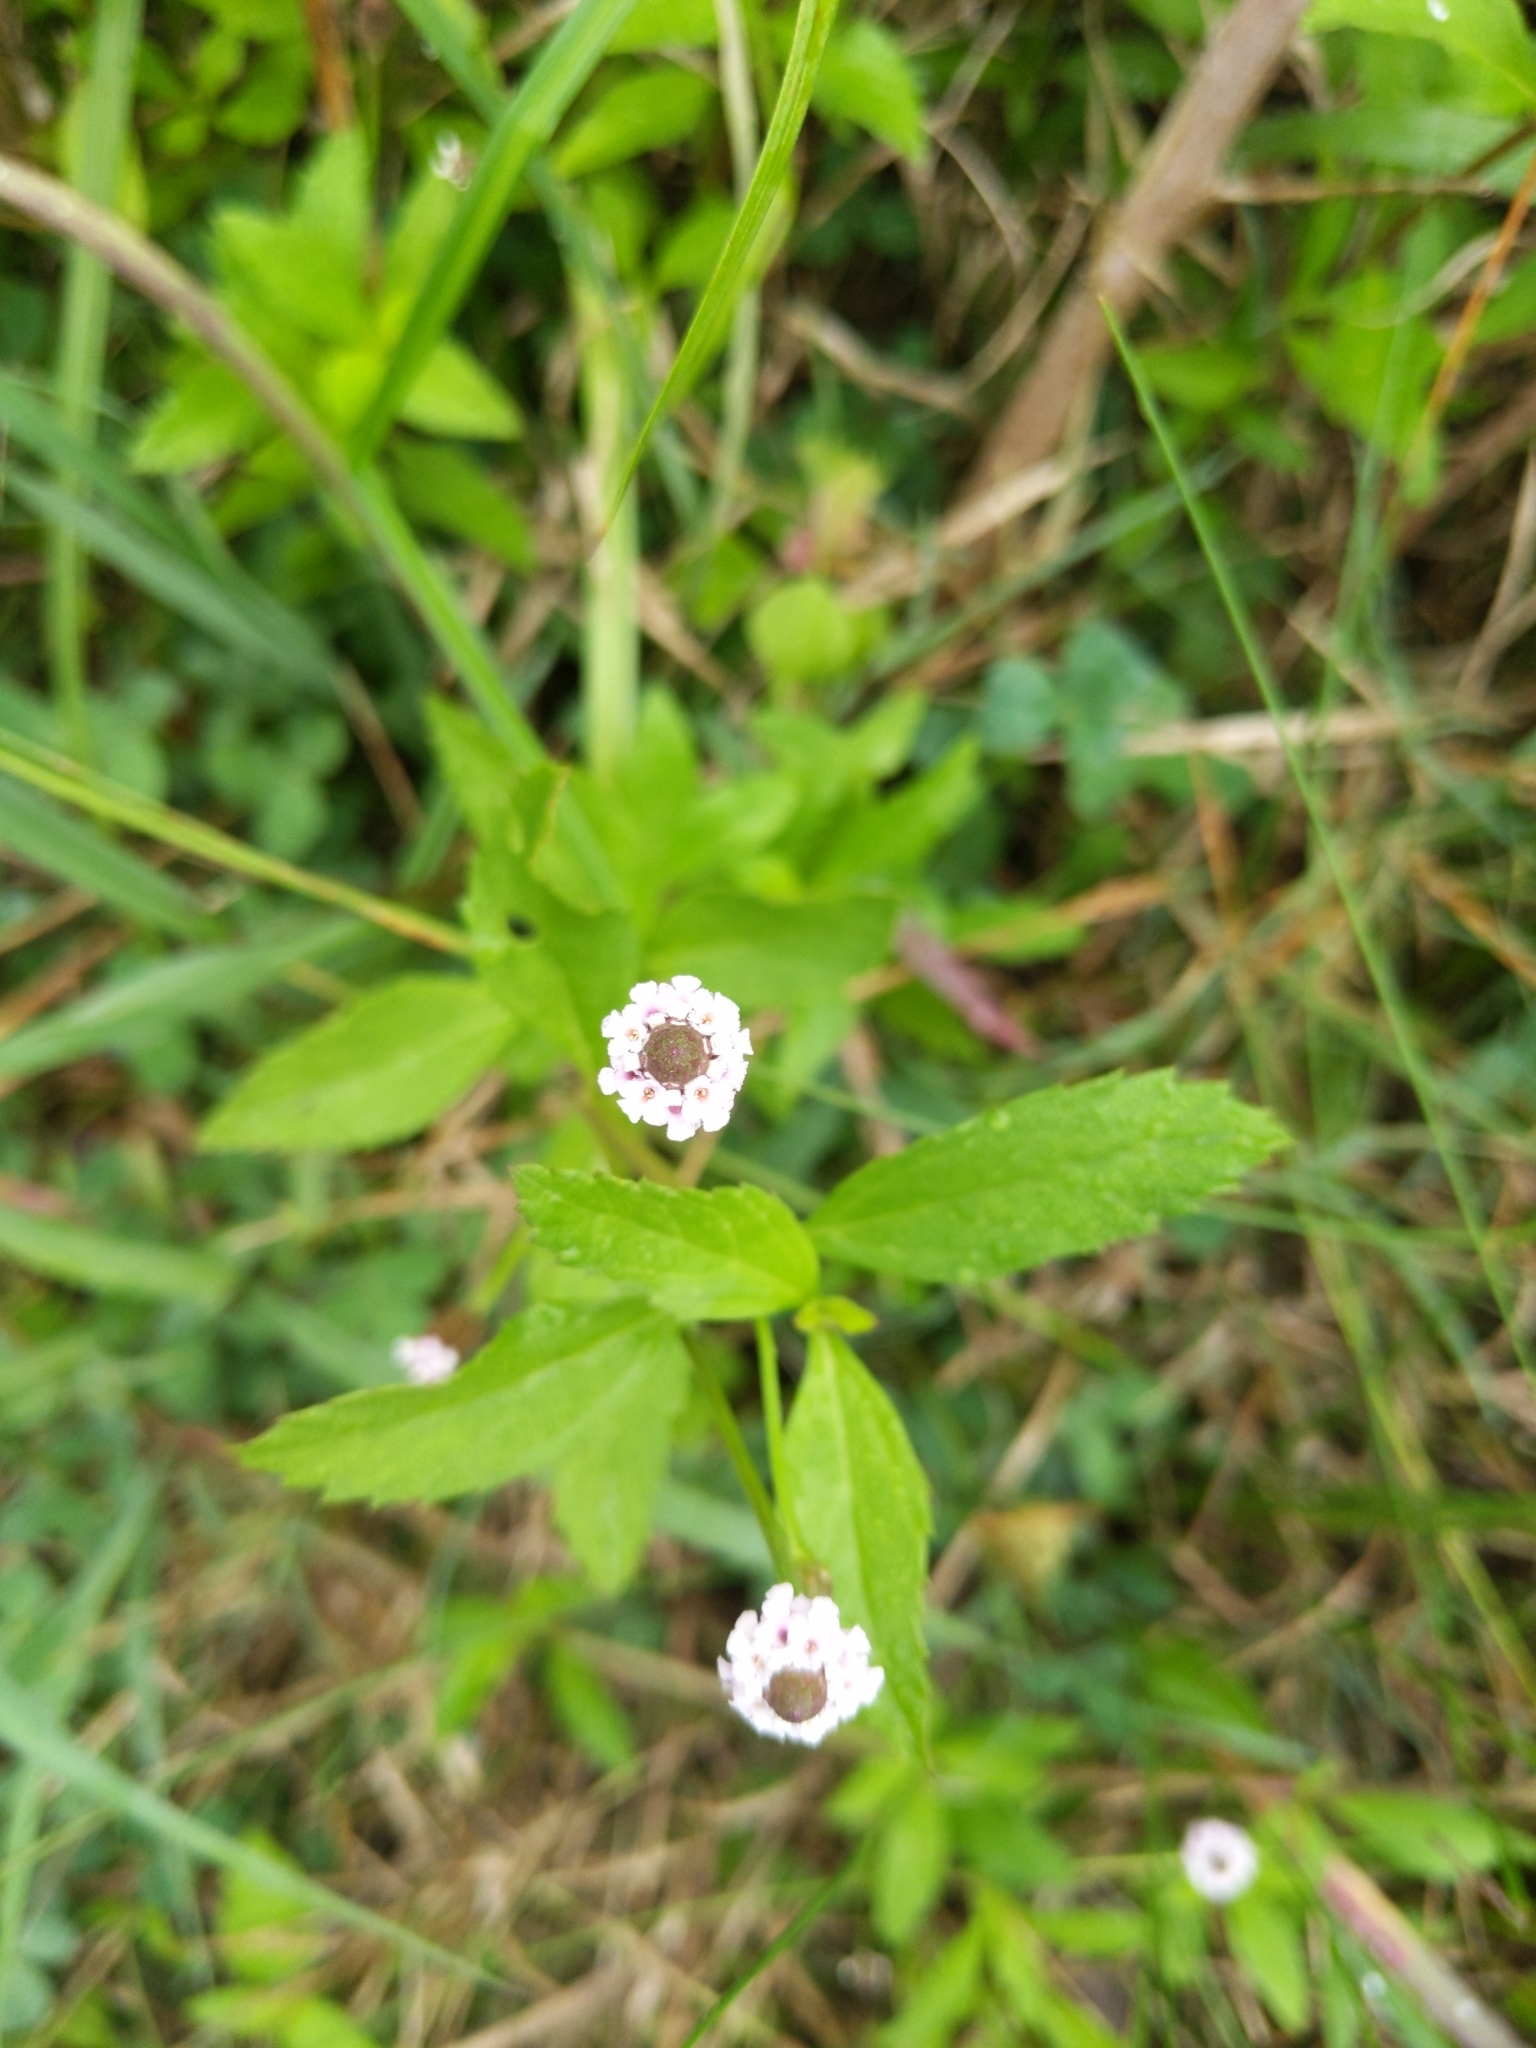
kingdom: Plantae
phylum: Tracheophyta
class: Magnoliopsida
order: Lamiales
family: Verbenaceae
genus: Phyla
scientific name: Phyla lanceolata
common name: Northern fogfruit
